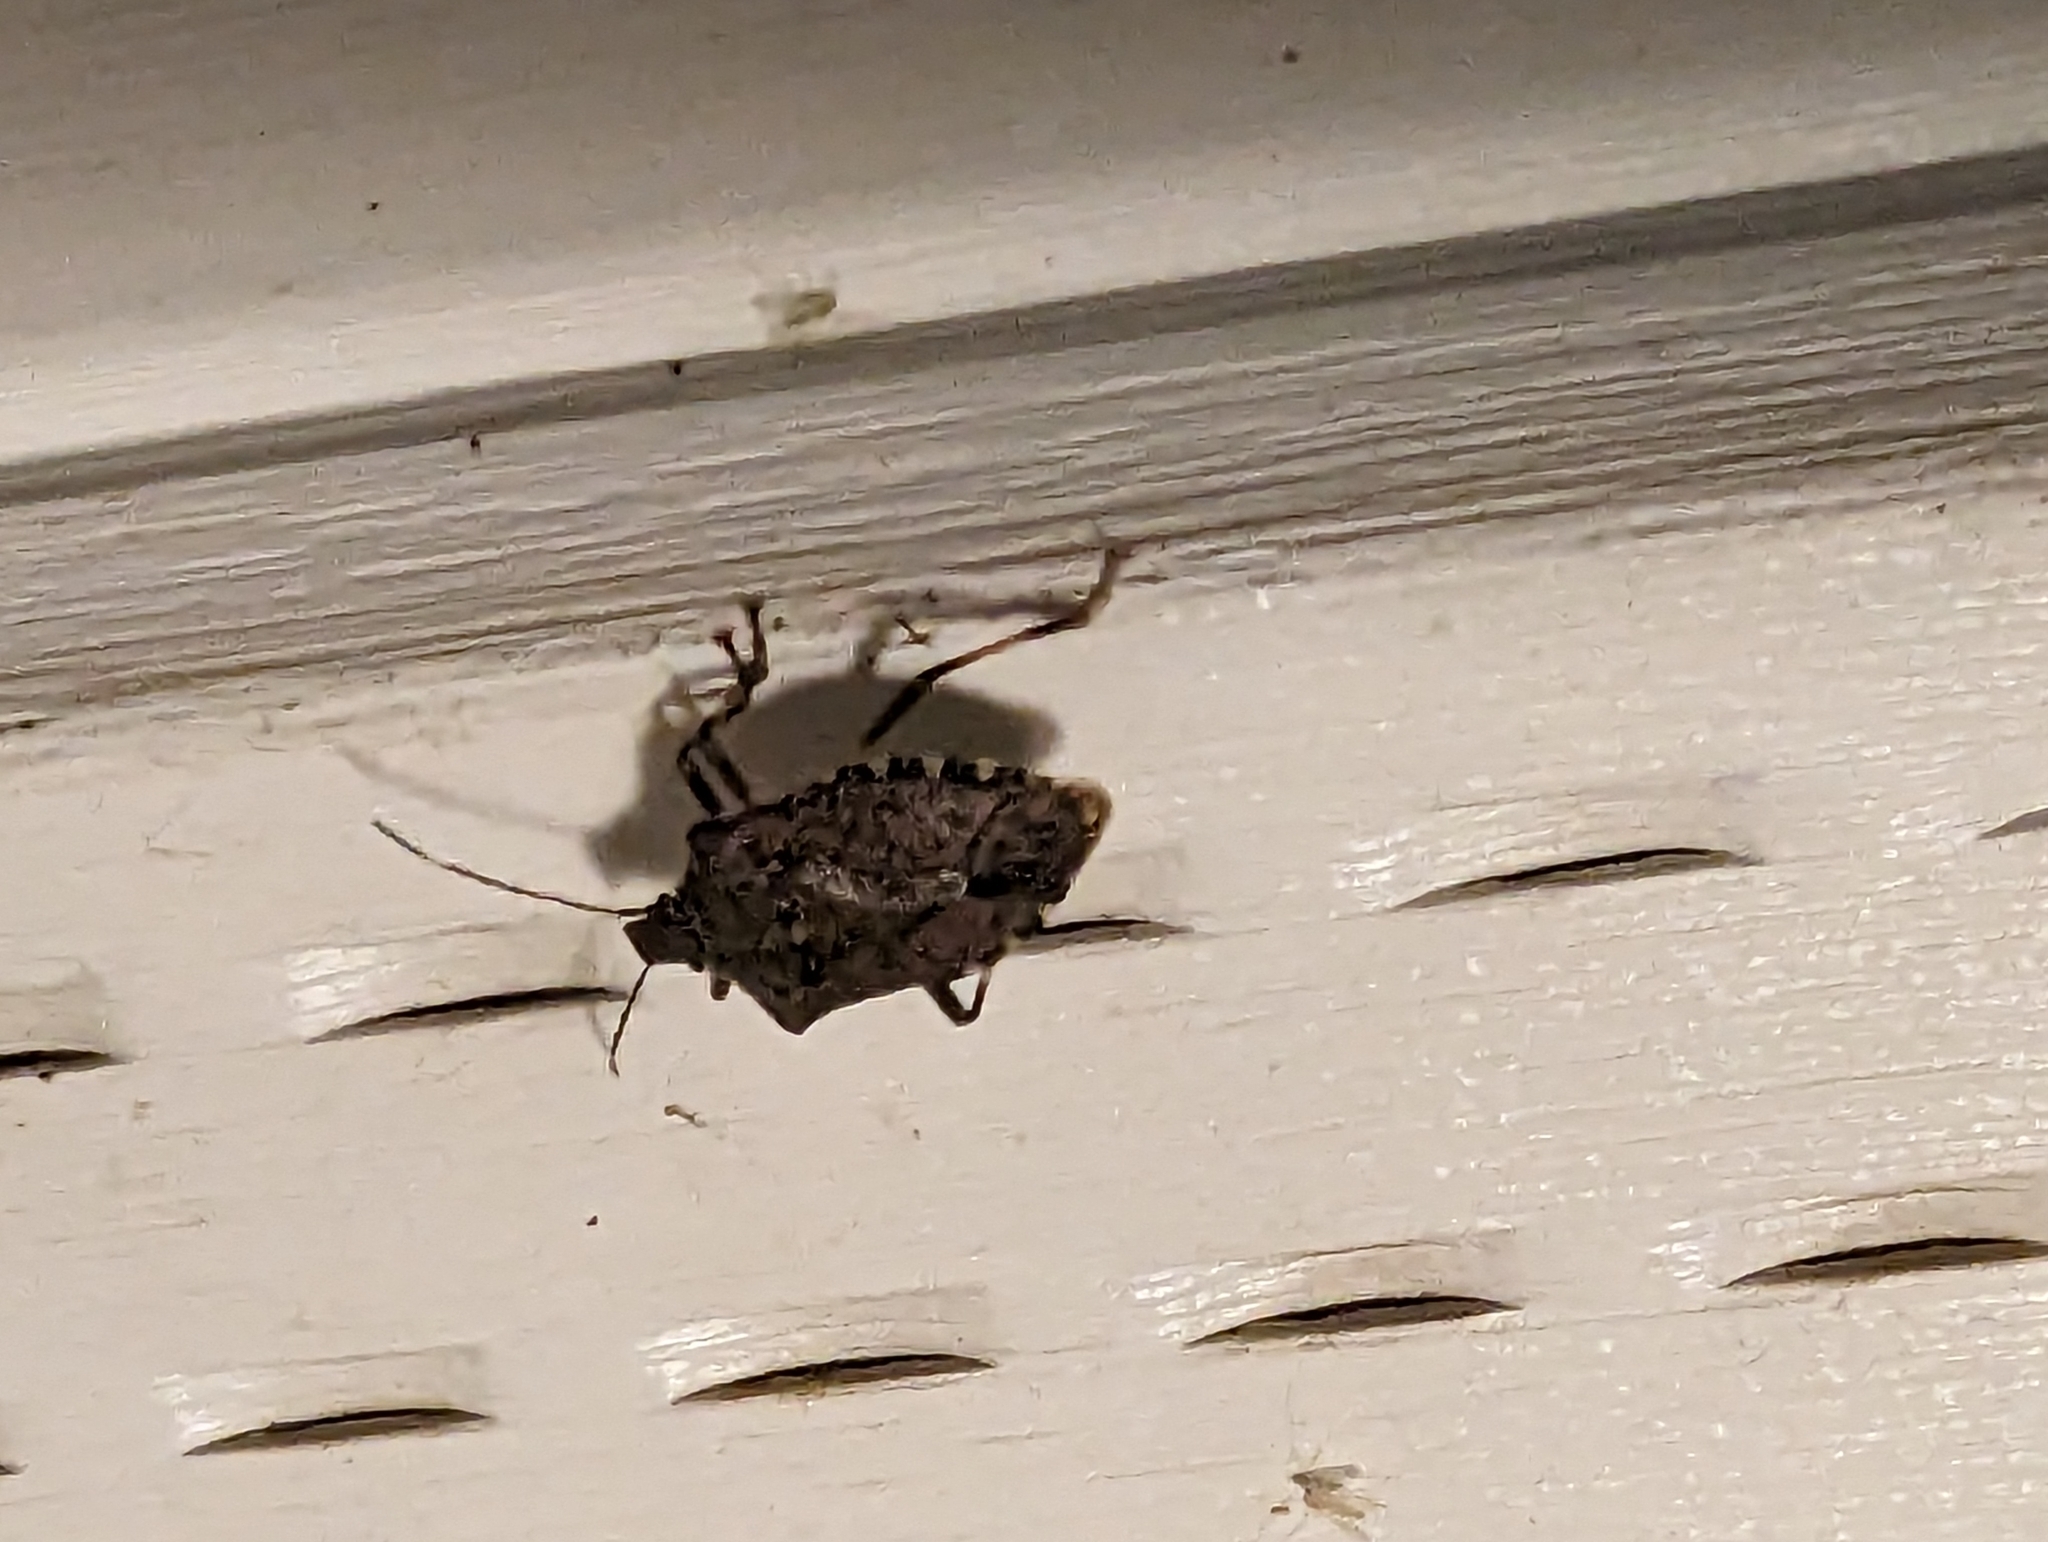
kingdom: Animalia
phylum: Arthropoda
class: Insecta
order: Hemiptera
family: Pentatomidae
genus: Halyomorpha
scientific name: Halyomorpha halys
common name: Brown marmorated stink bug
